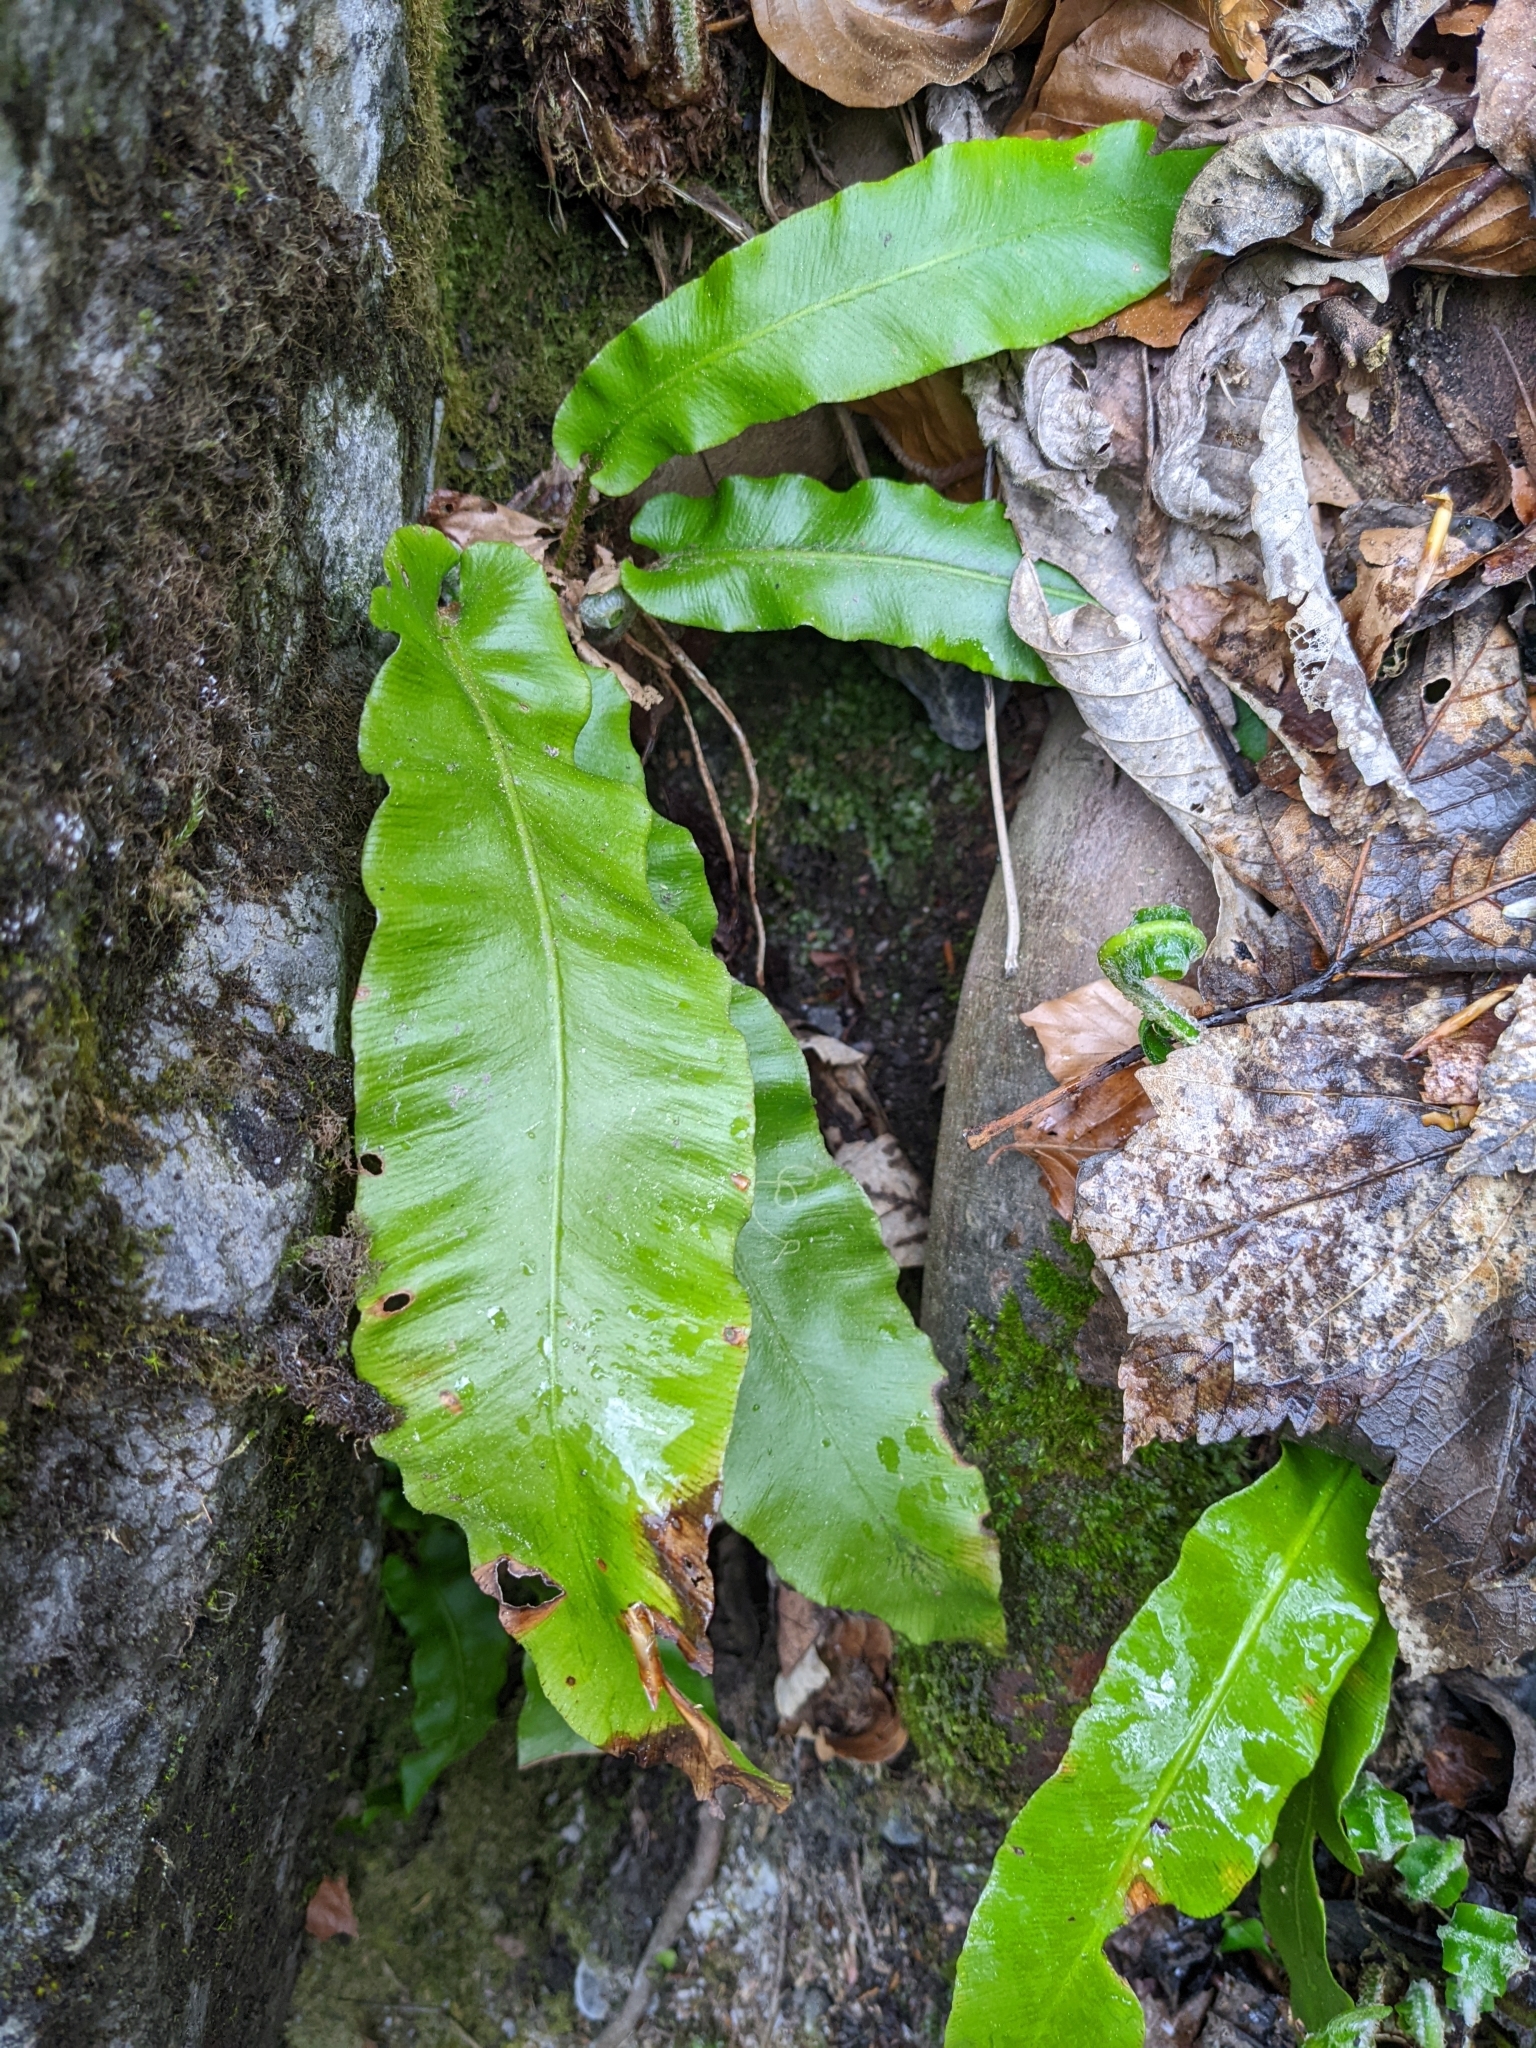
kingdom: Plantae
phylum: Tracheophyta
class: Polypodiopsida
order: Polypodiales
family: Aspleniaceae
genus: Asplenium
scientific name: Asplenium scolopendrium
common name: Hart's-tongue fern
